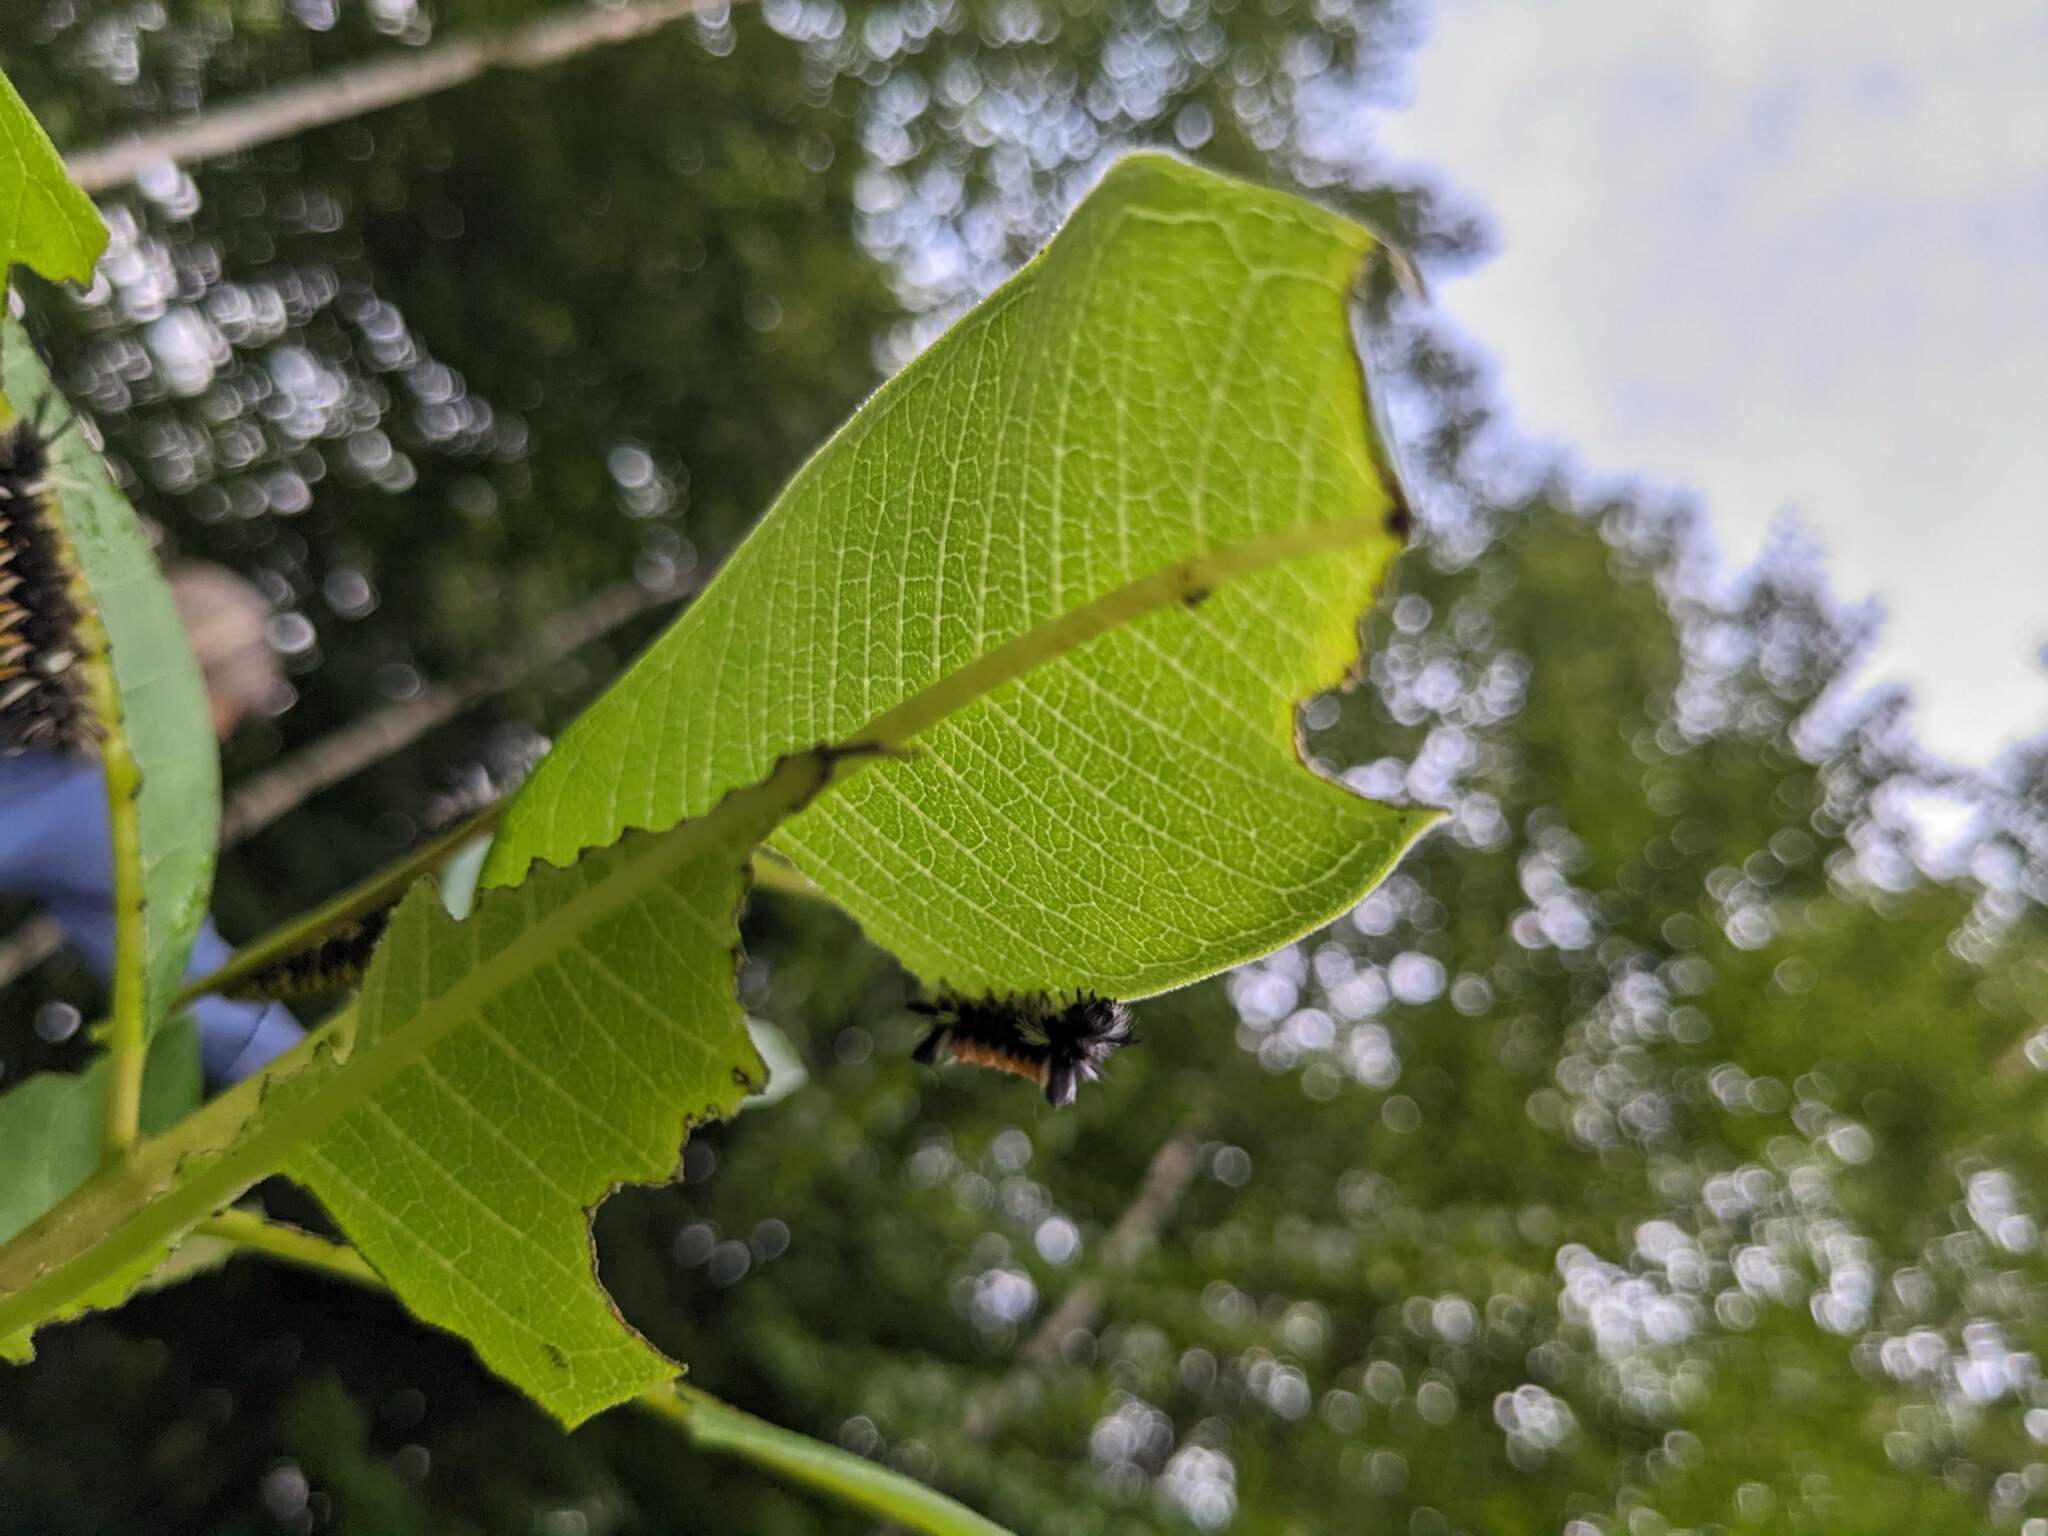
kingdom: Animalia
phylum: Arthropoda
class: Insecta
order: Lepidoptera
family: Erebidae
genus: Euchaetes
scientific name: Euchaetes egle
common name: Milkweed tussock moth
